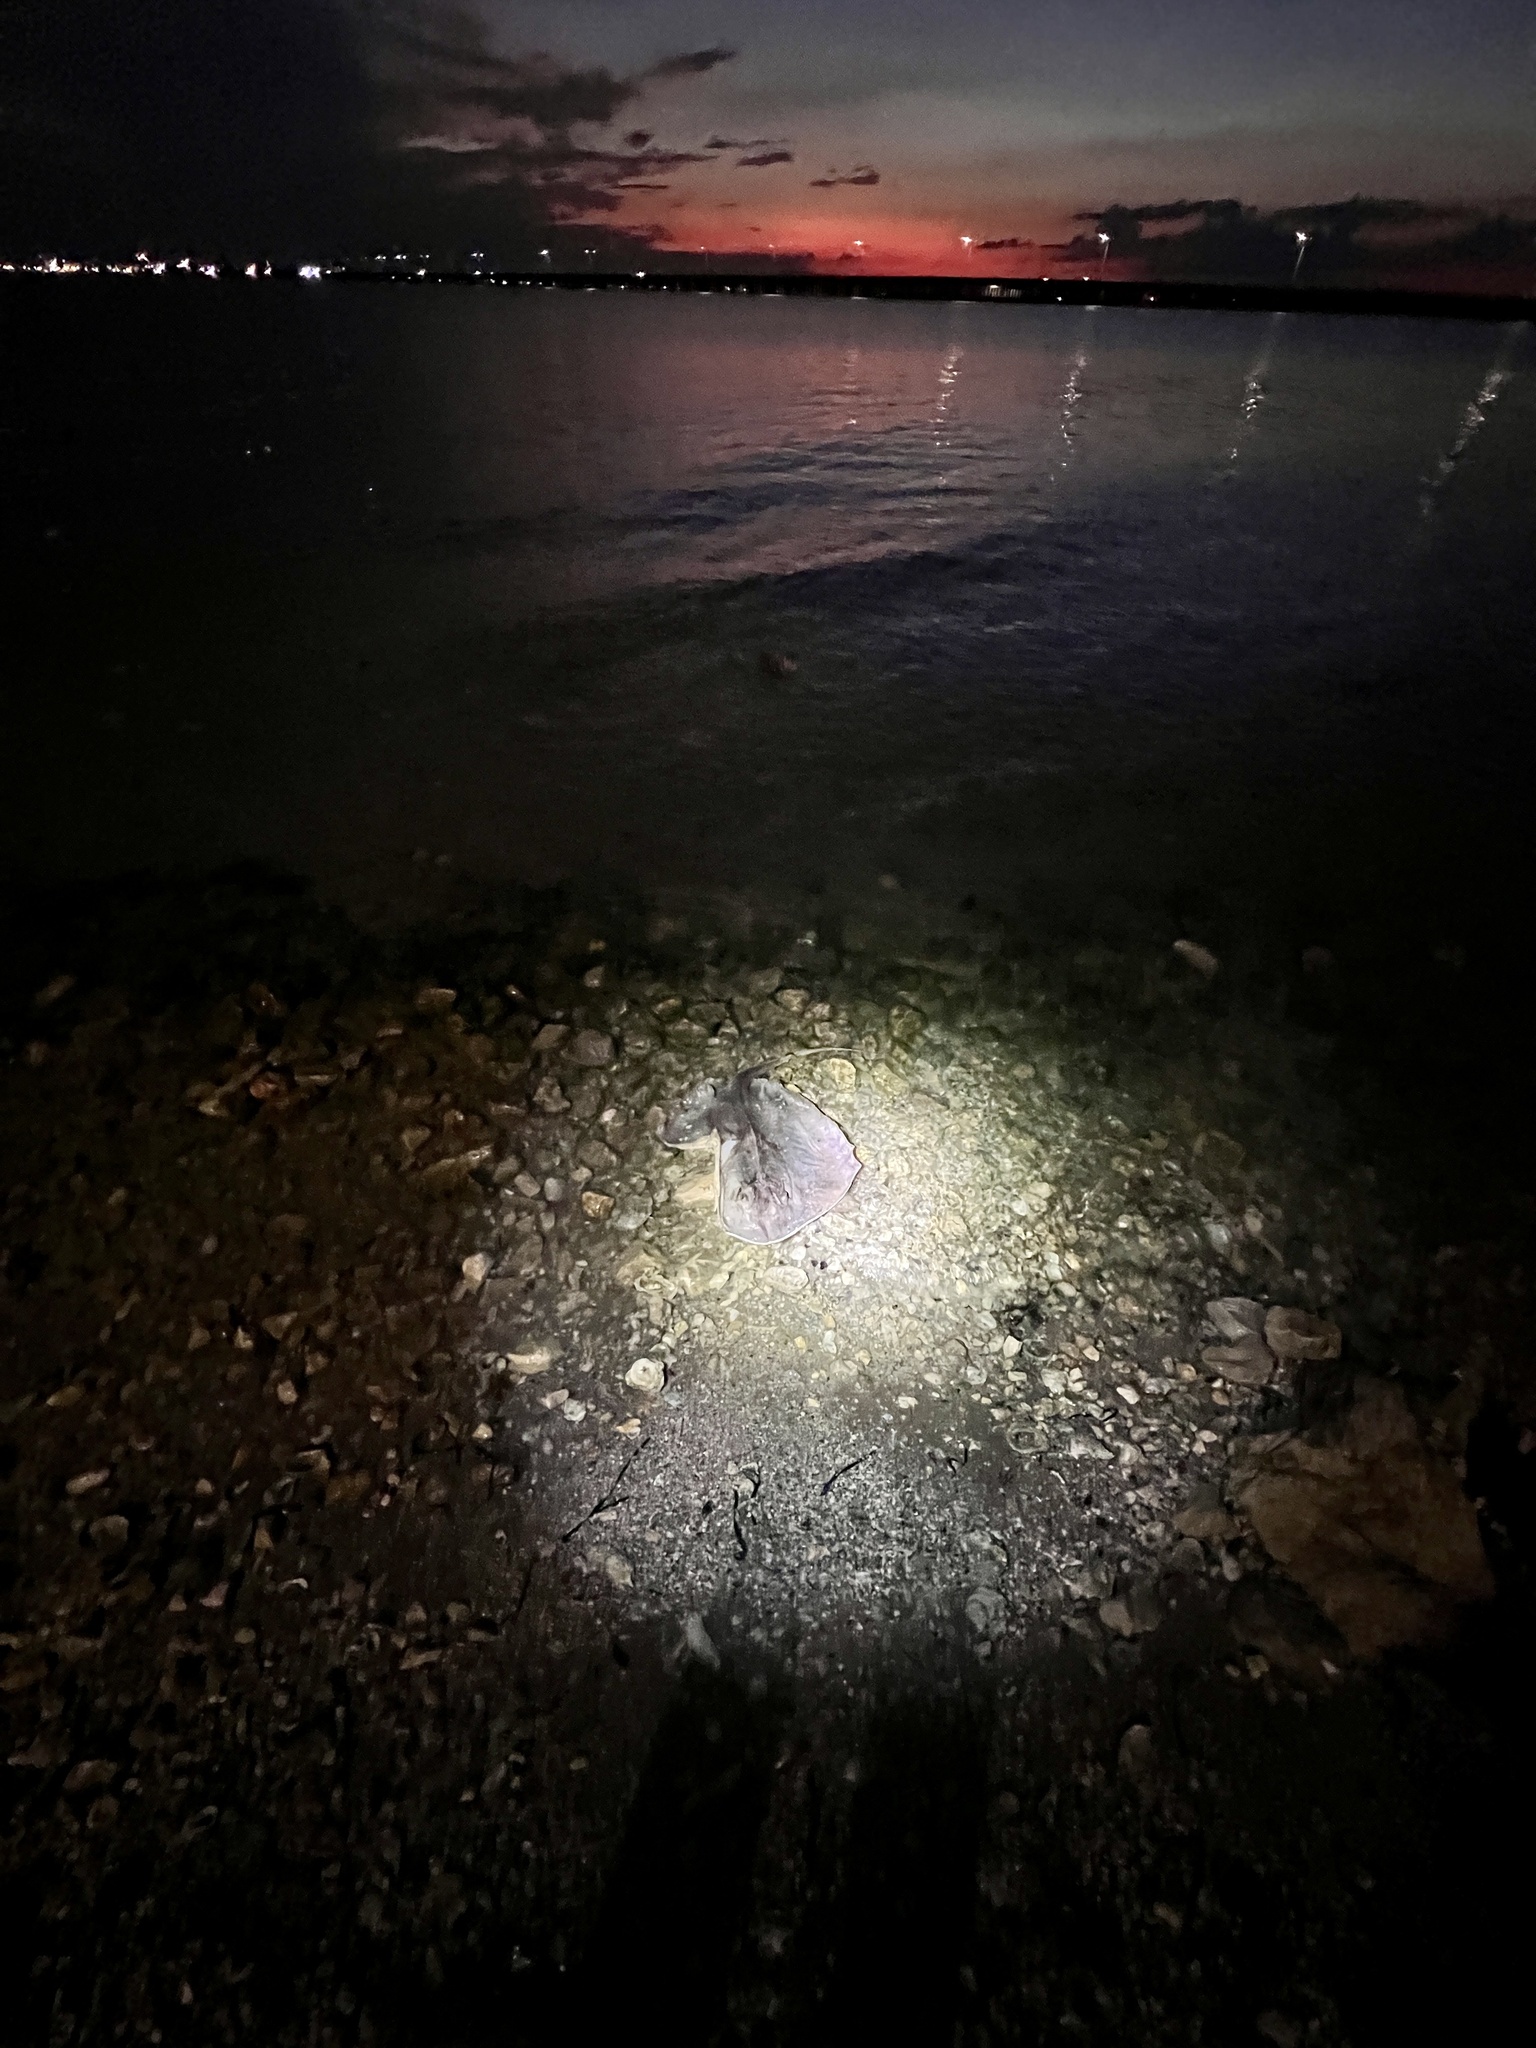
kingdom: Animalia
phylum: Chordata
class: Elasmobranchii
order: Myliobatiformes
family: Dasyatidae
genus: Hypanus
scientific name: Hypanus americanus
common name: Southern stingray
